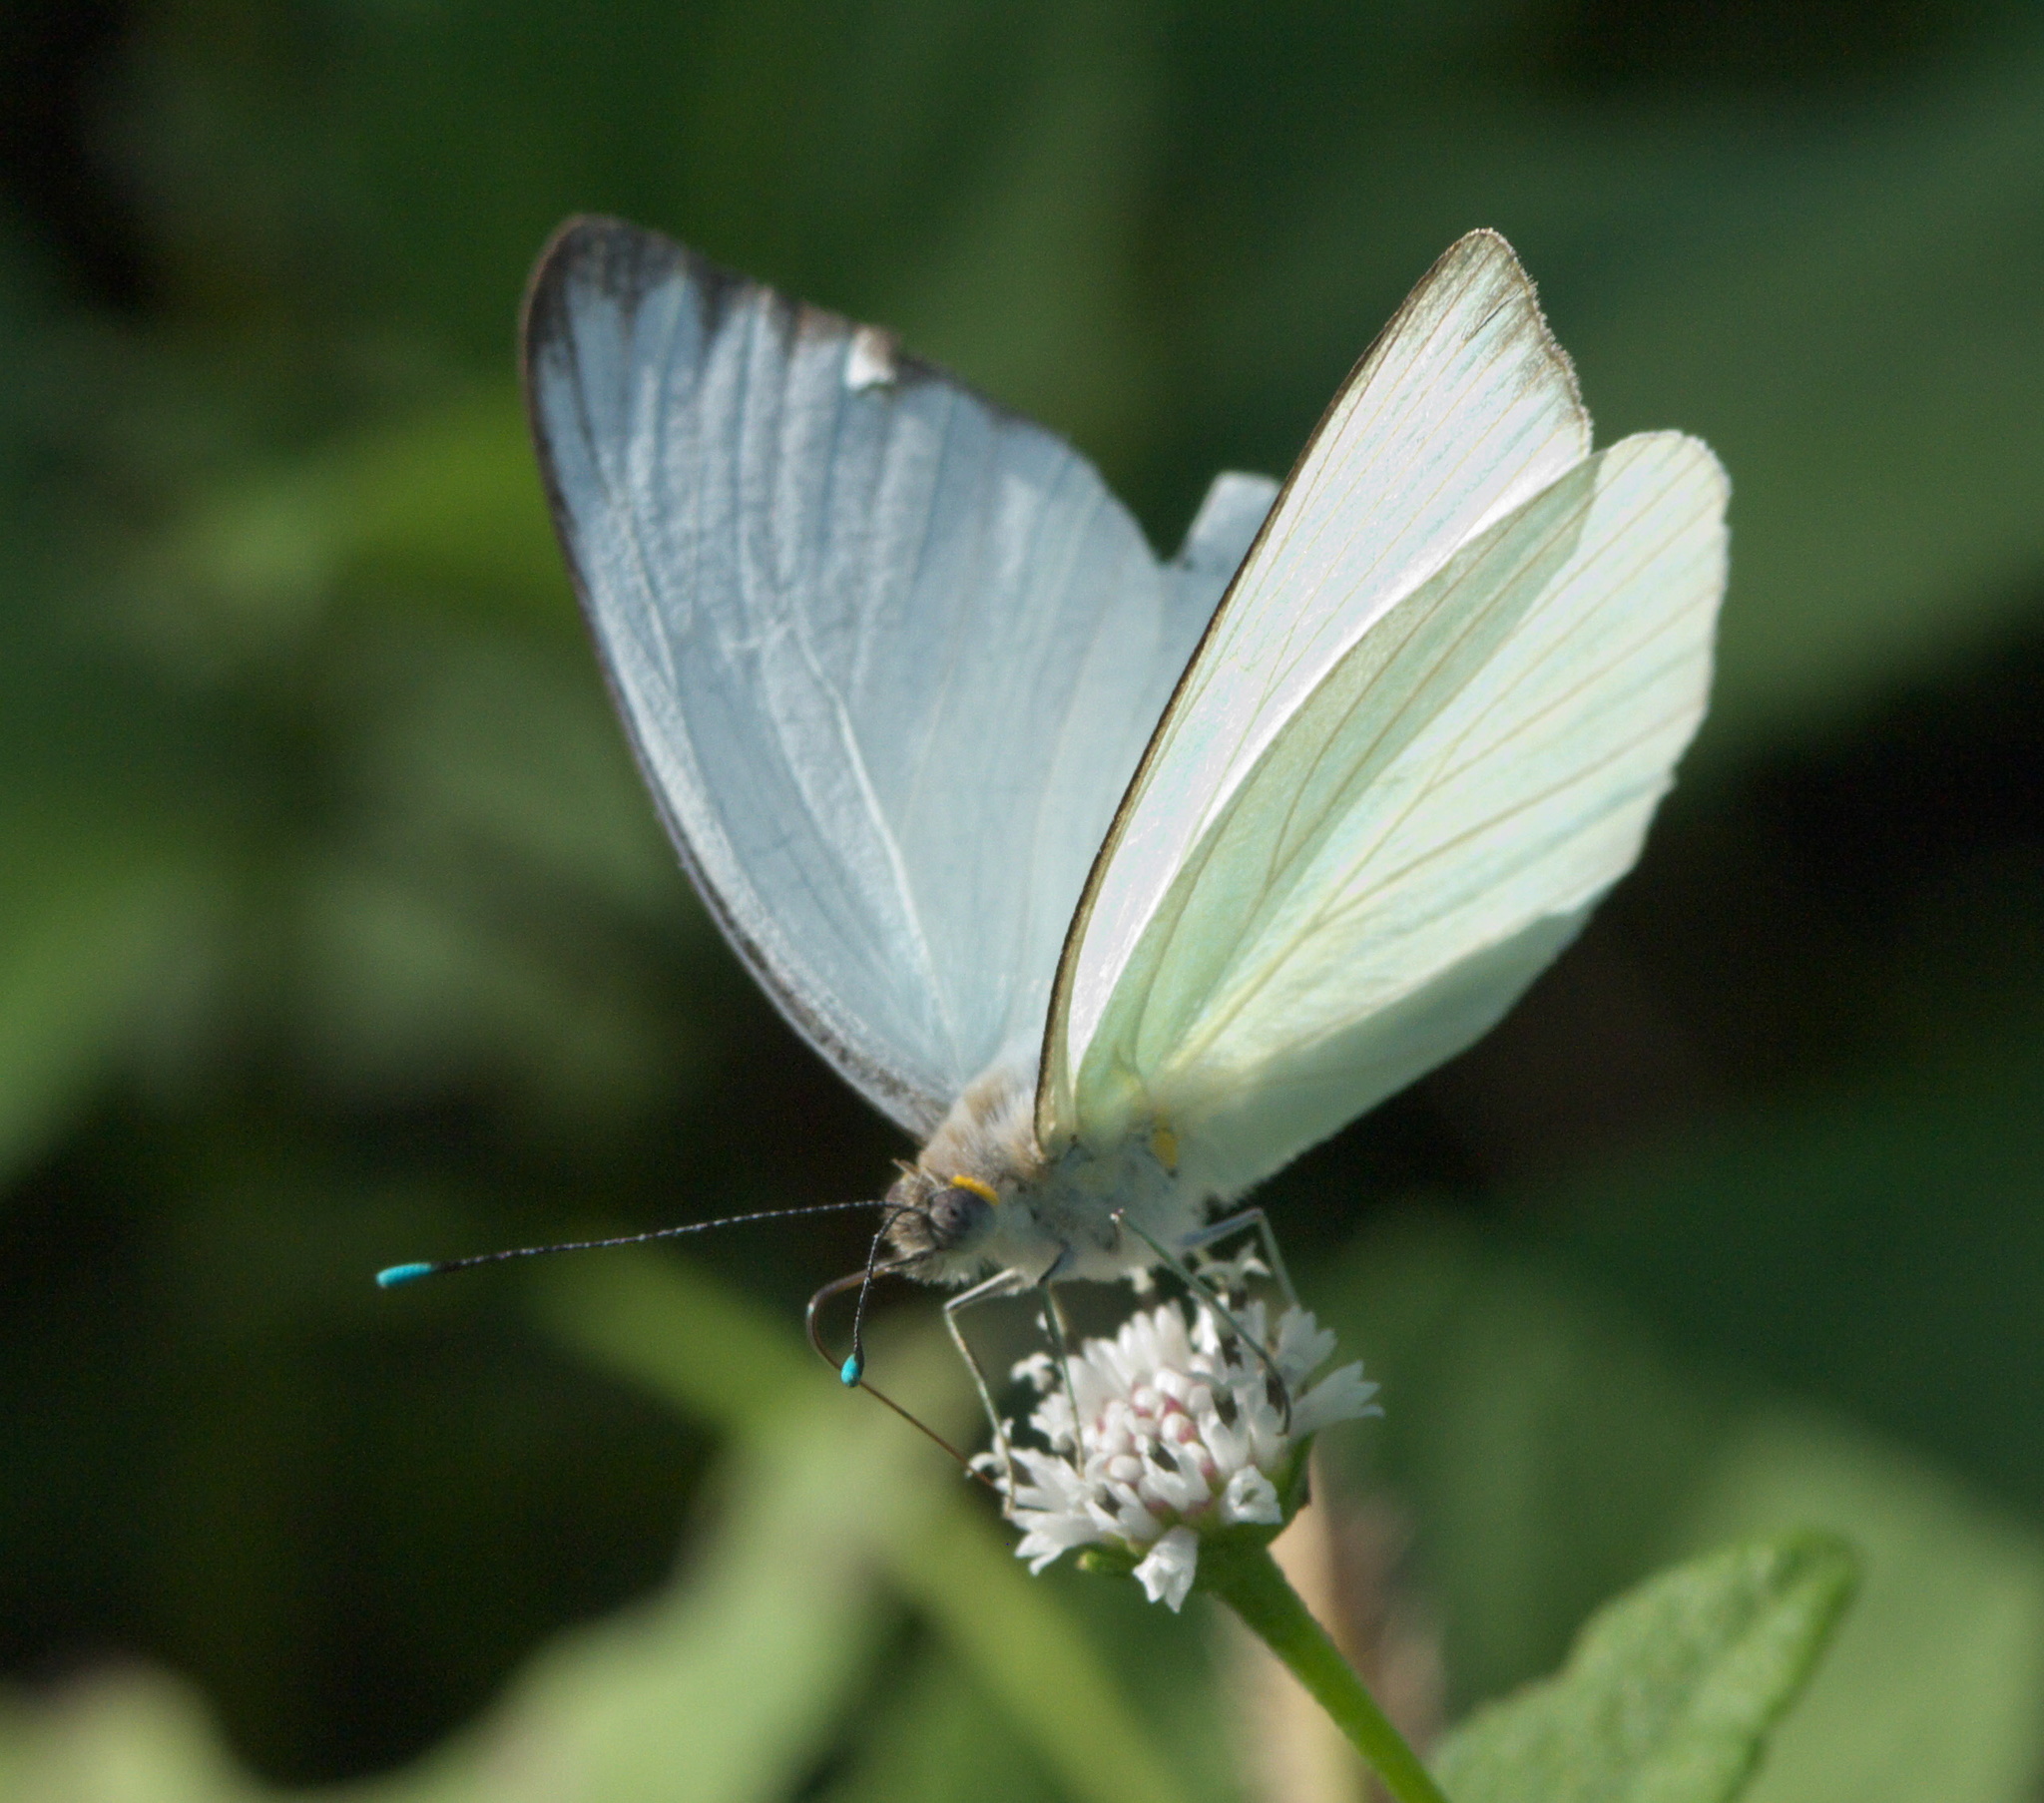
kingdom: Animalia
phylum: Arthropoda
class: Insecta
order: Lepidoptera
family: Pieridae
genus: Ascia
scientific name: Ascia monuste
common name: Great southern white
